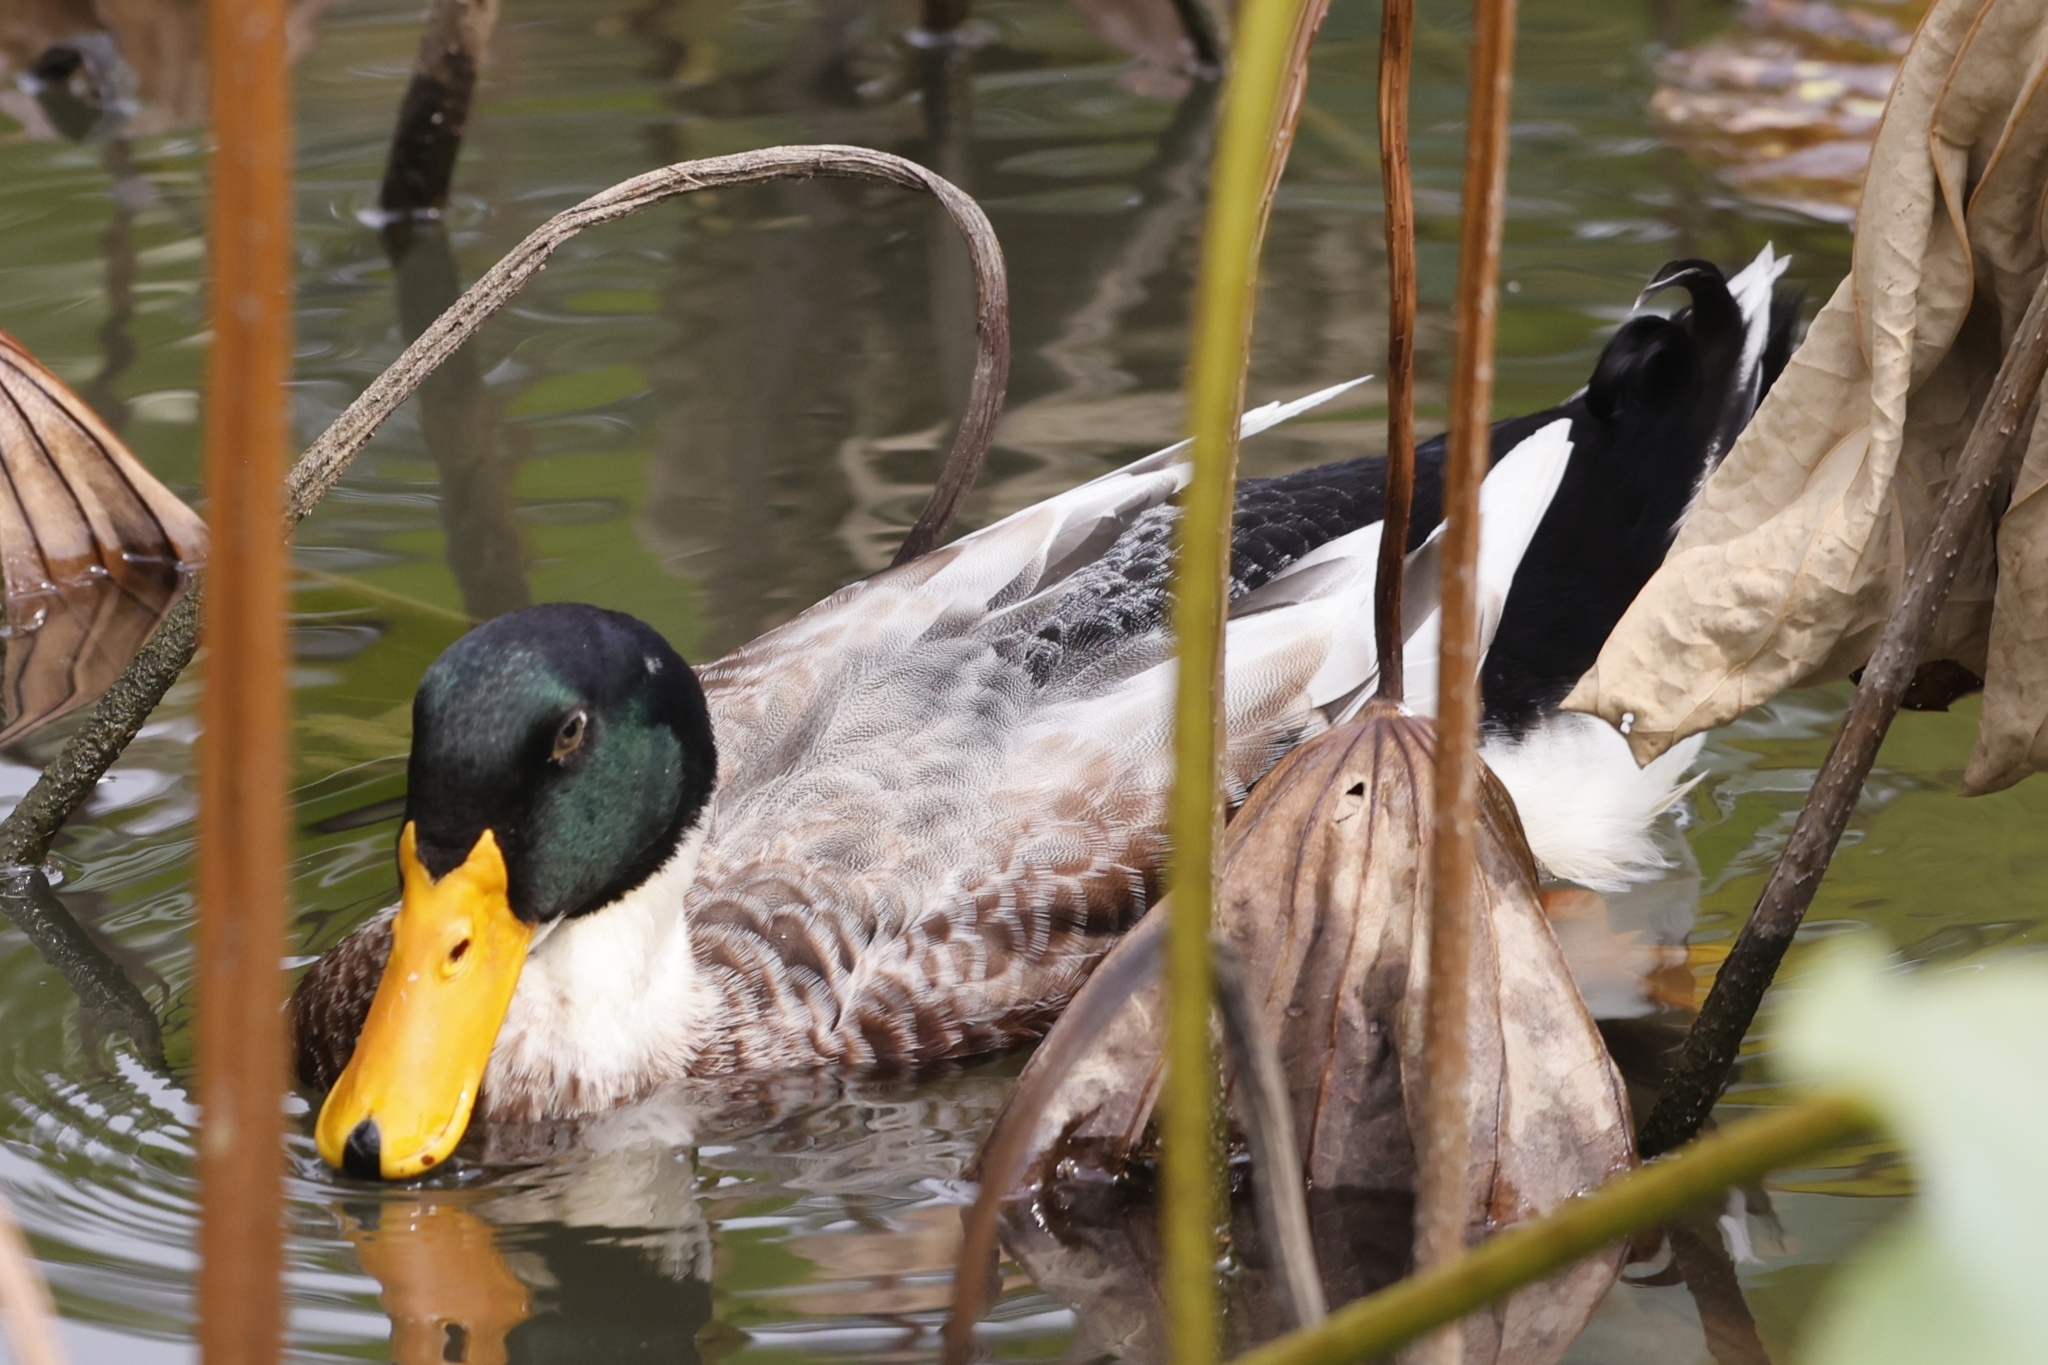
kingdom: Animalia
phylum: Chordata
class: Aves
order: Anseriformes
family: Anatidae
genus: Anas
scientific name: Anas platyrhynchos
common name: Mallard
